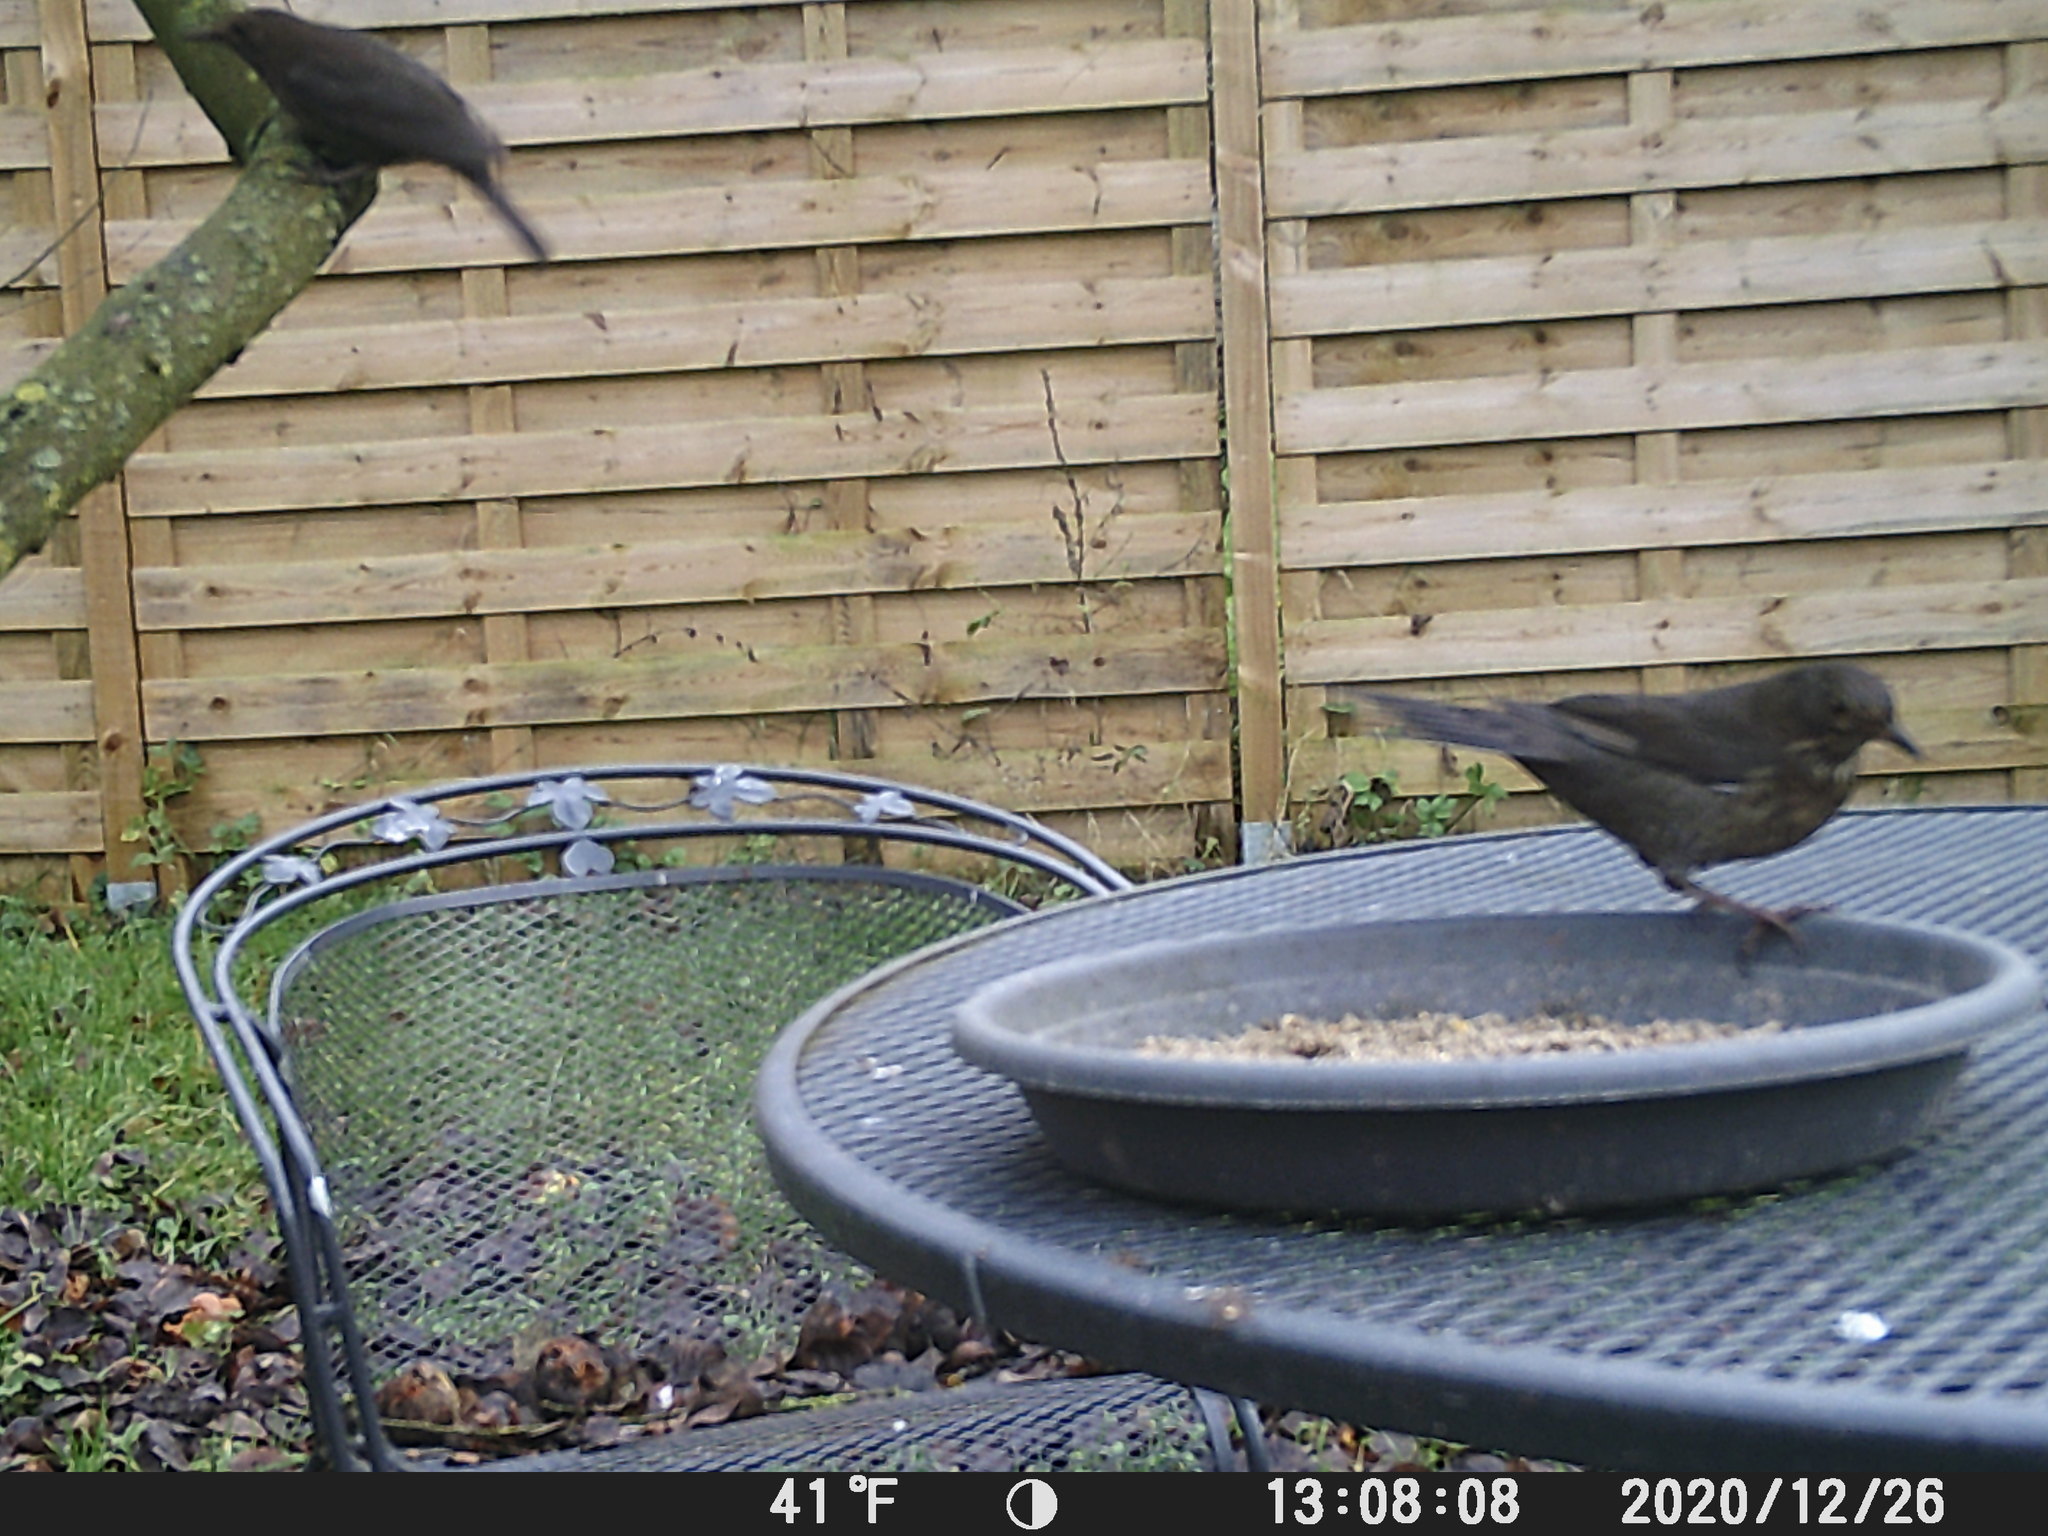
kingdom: Animalia
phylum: Chordata
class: Aves
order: Passeriformes
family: Turdidae
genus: Turdus
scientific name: Turdus merula
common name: Common blackbird
